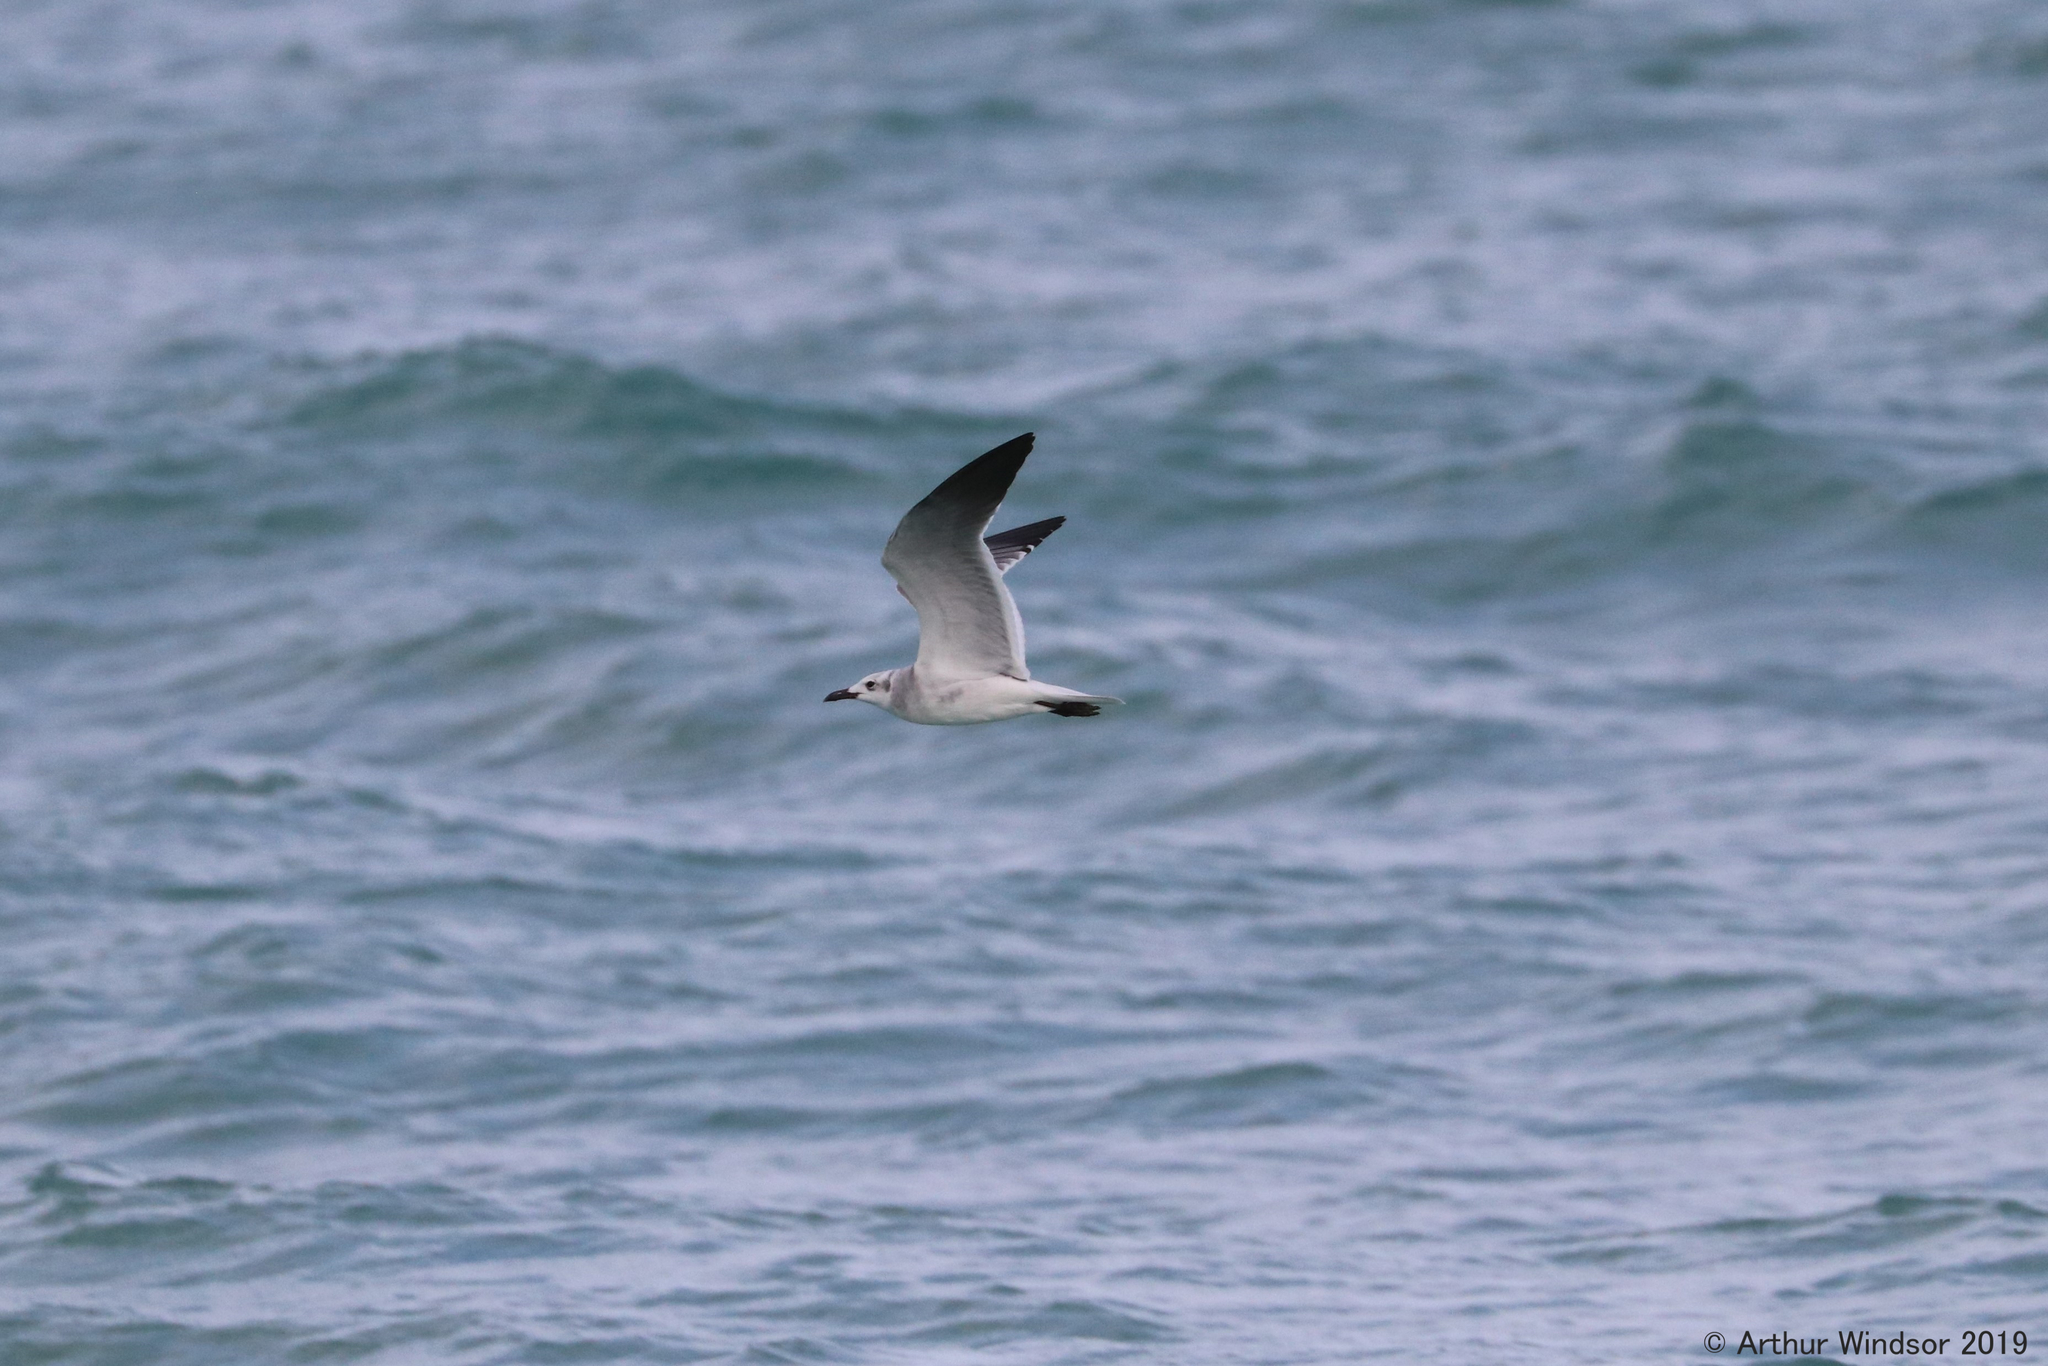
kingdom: Animalia
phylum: Chordata
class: Aves
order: Charadriiformes
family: Laridae
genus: Leucophaeus
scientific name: Leucophaeus atricilla
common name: Laughing gull
